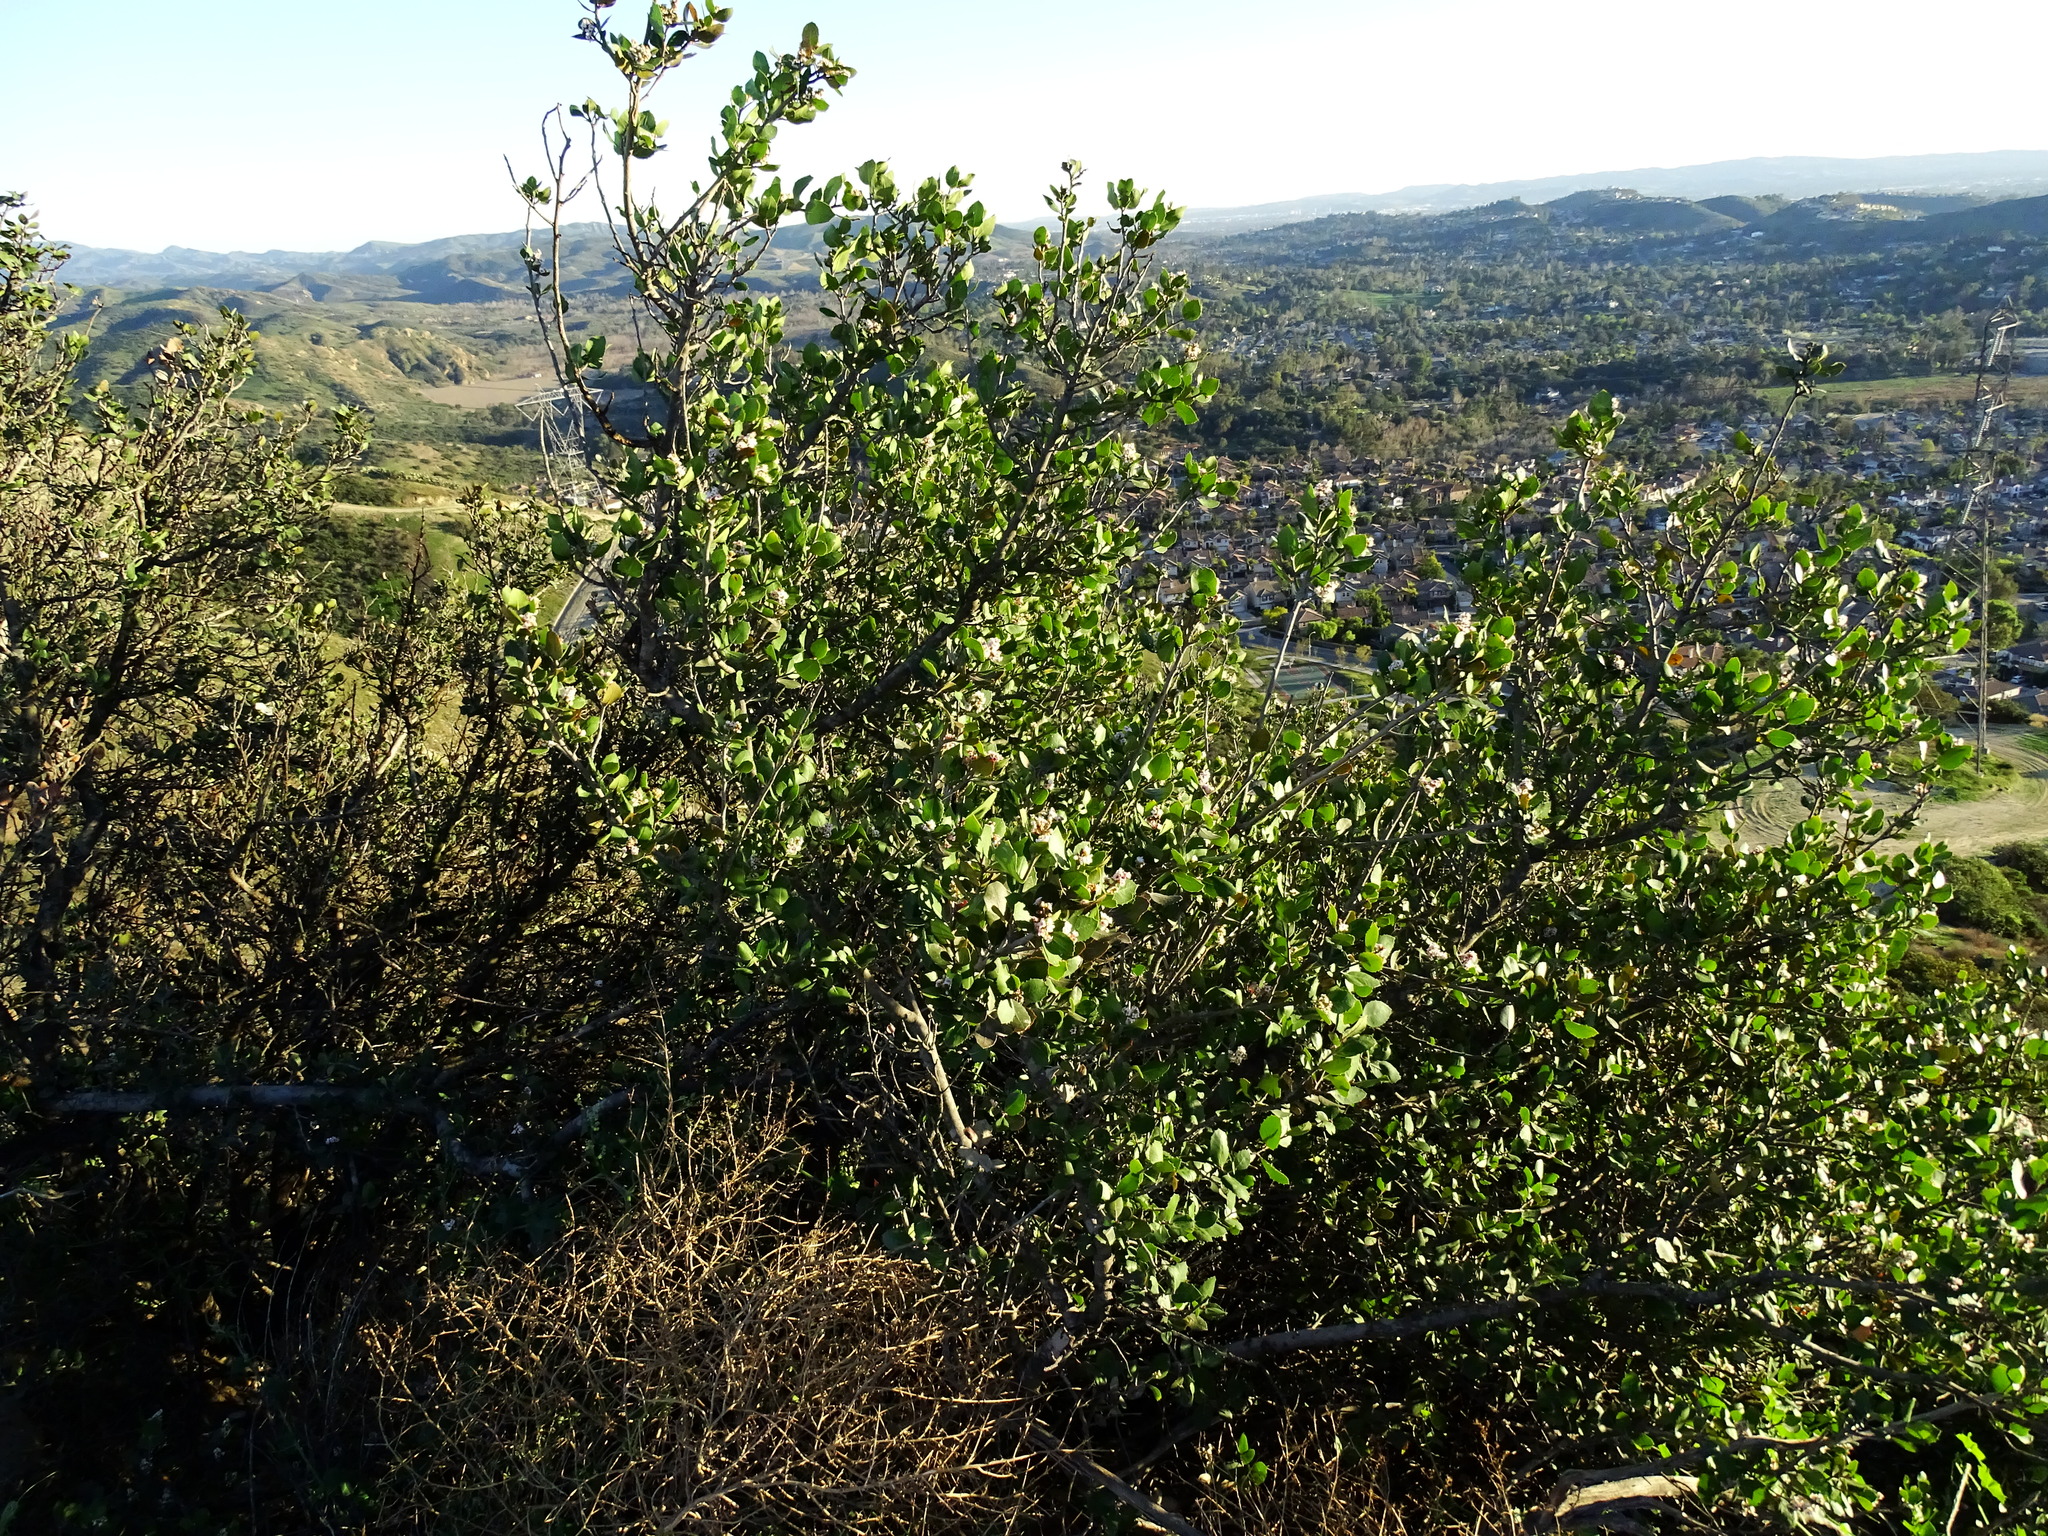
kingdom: Plantae
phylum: Tracheophyta
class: Magnoliopsida
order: Sapindales
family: Anacardiaceae
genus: Rhus
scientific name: Rhus integrifolia
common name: Lemonade sumac
